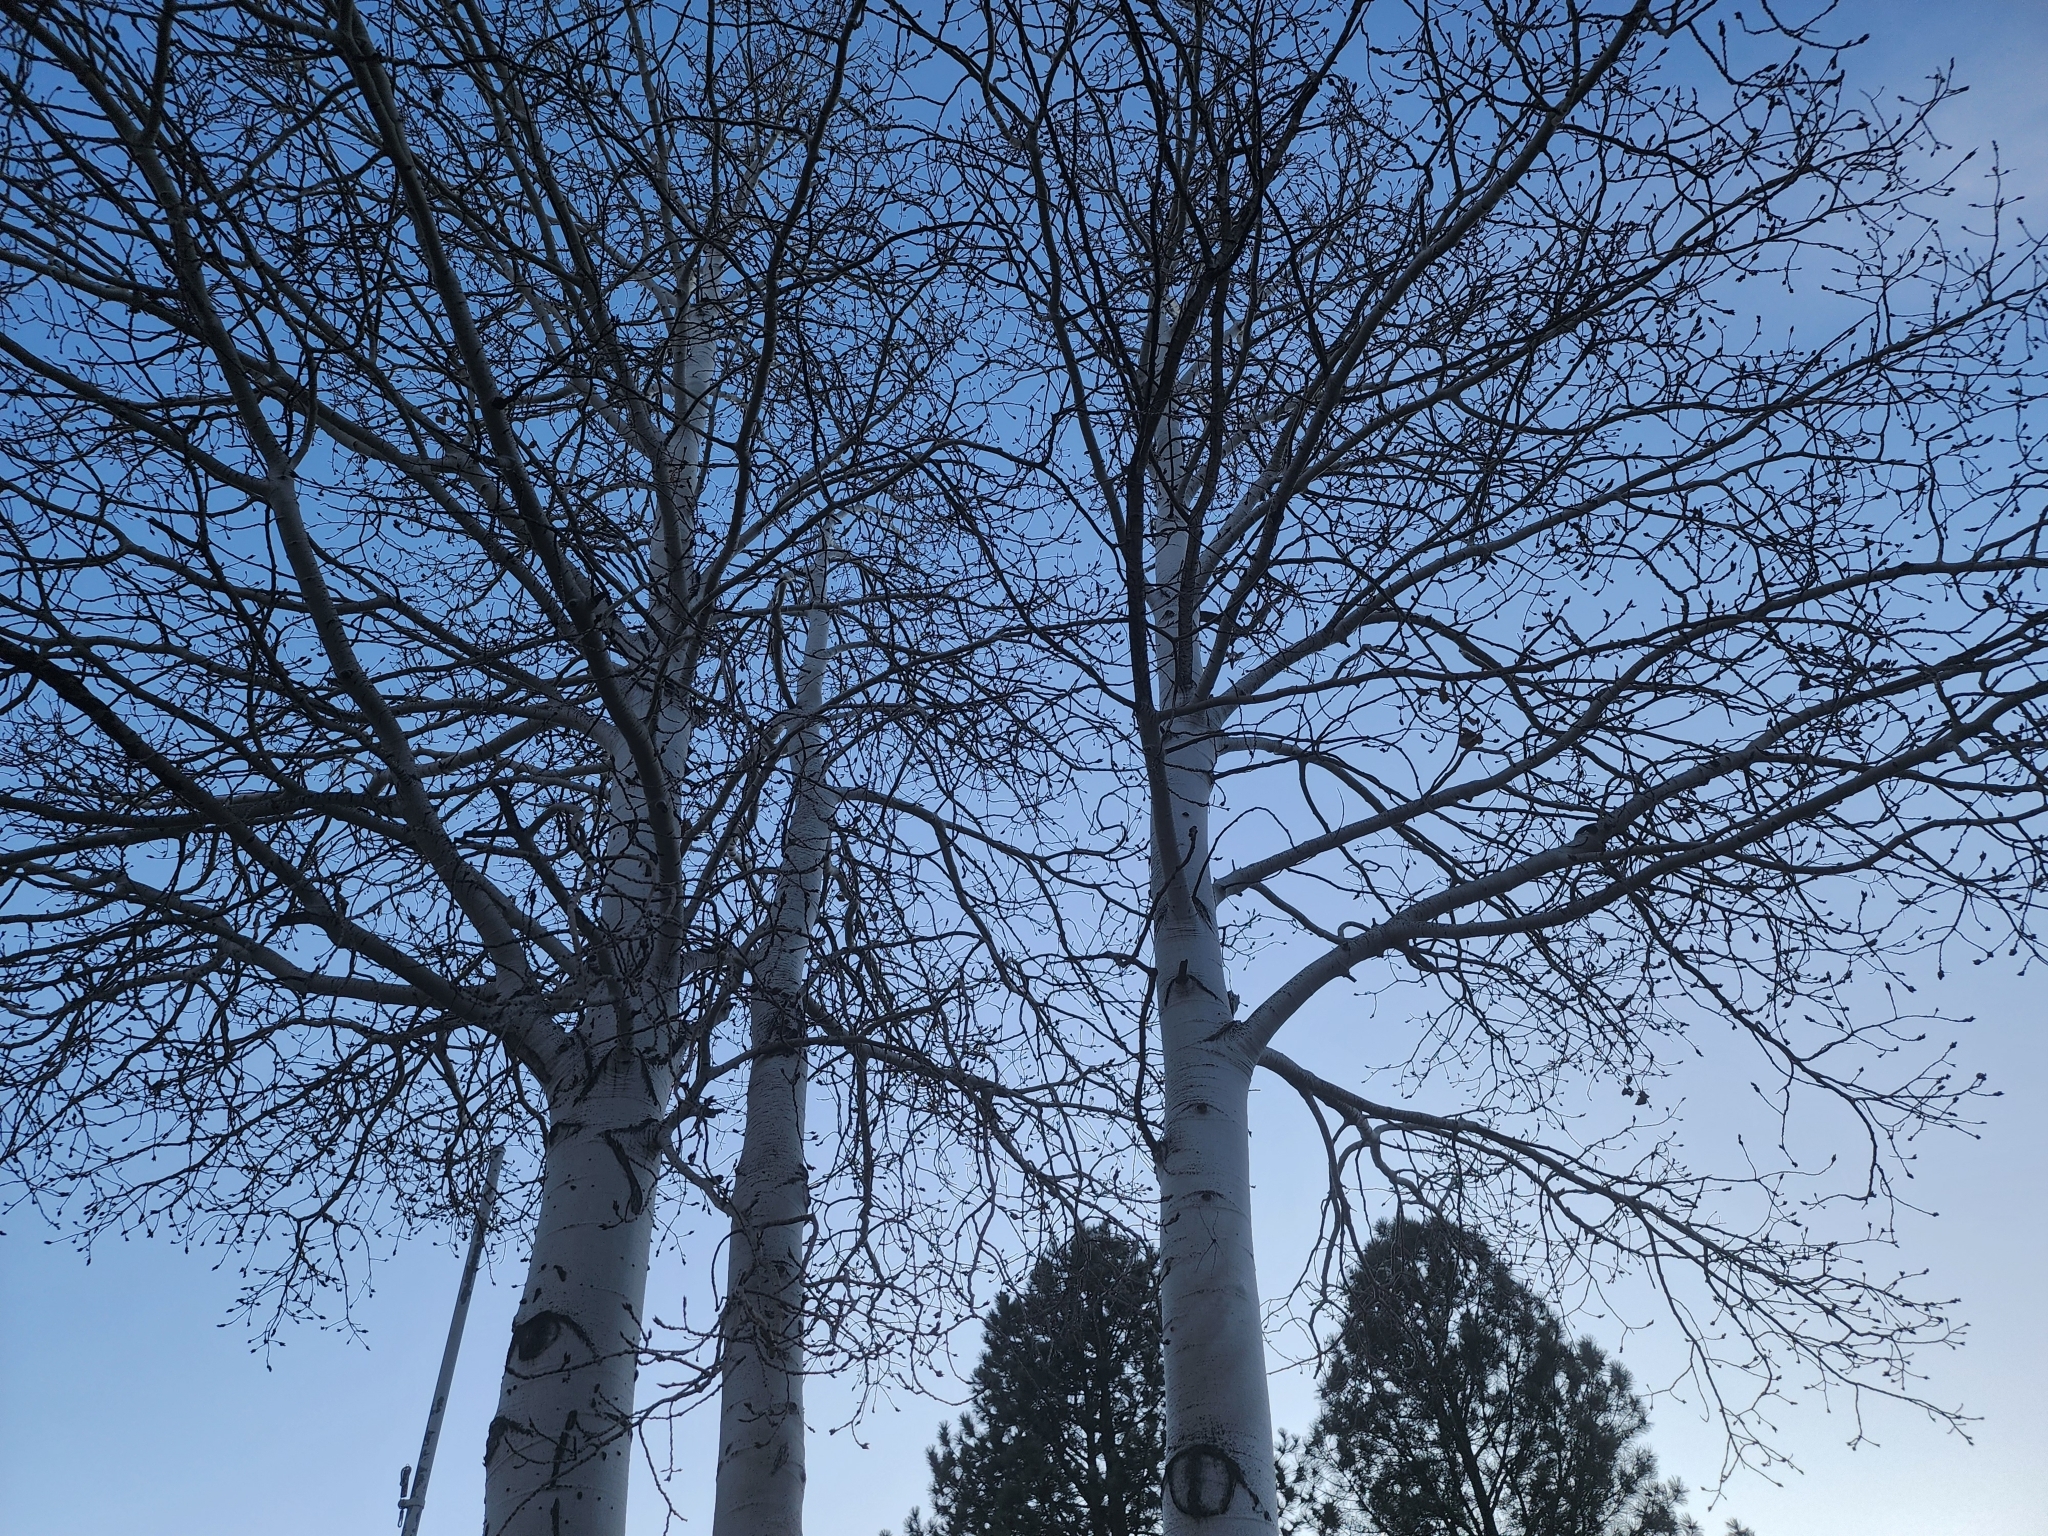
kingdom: Plantae
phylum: Tracheophyta
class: Magnoliopsida
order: Malpighiales
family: Salicaceae
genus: Populus
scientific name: Populus tremuloides
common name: Quaking aspen
